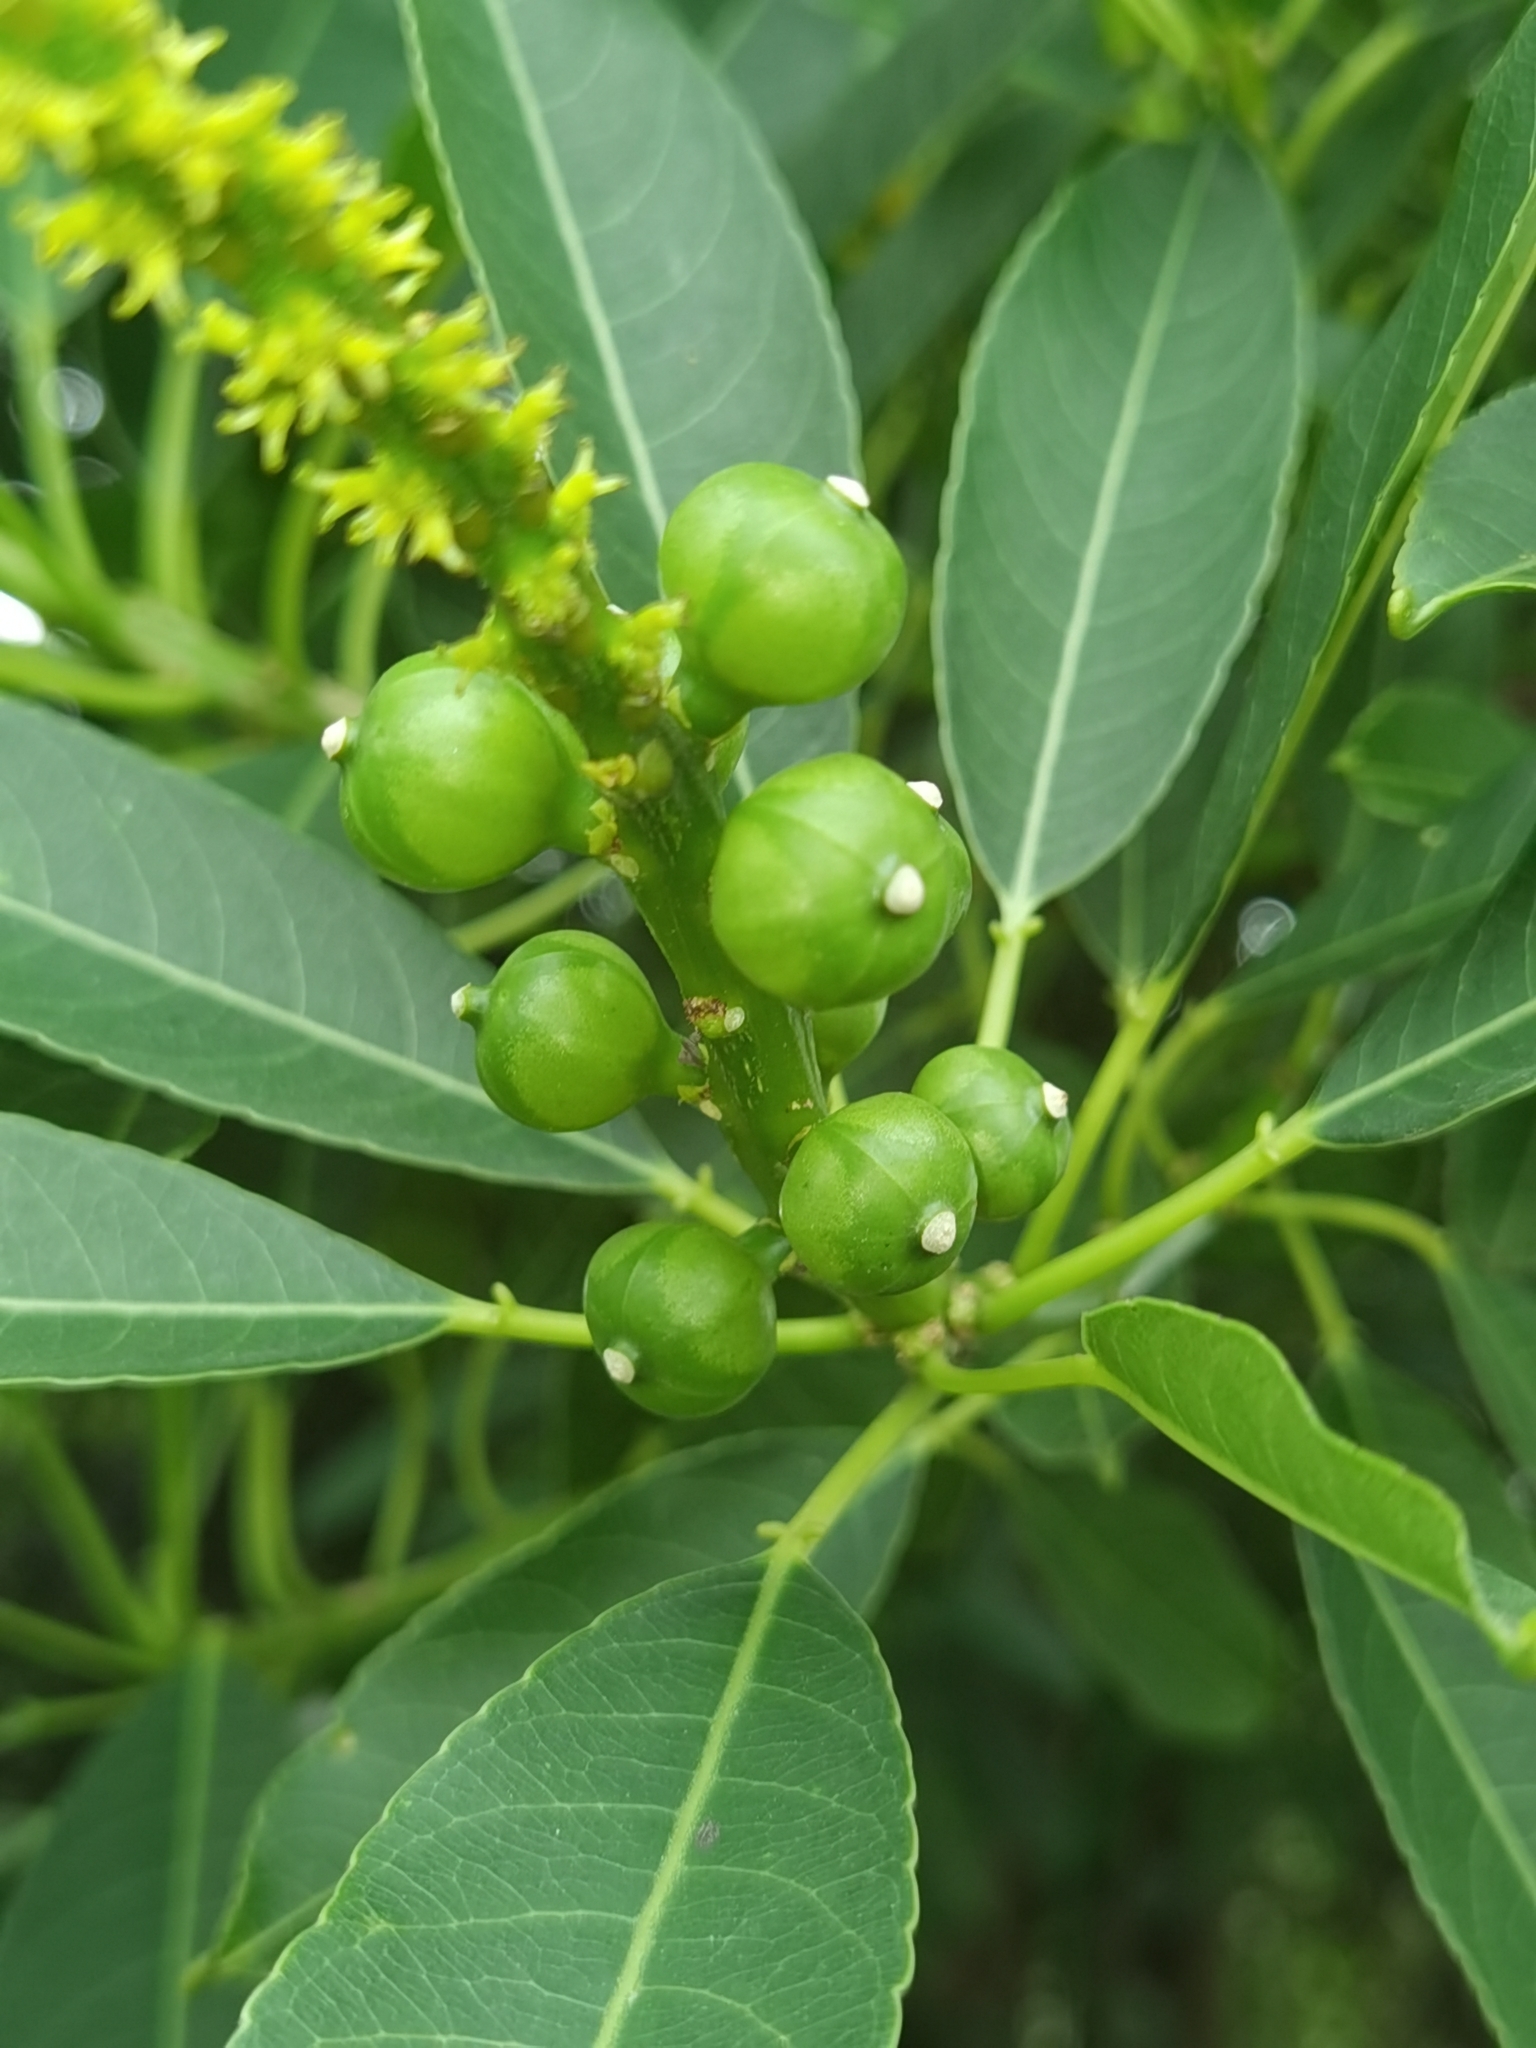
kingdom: Plantae
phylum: Tracheophyta
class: Magnoliopsida
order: Malpighiales
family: Euphorbiaceae
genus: Sapium
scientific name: Sapium glandulosum
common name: Milktree
